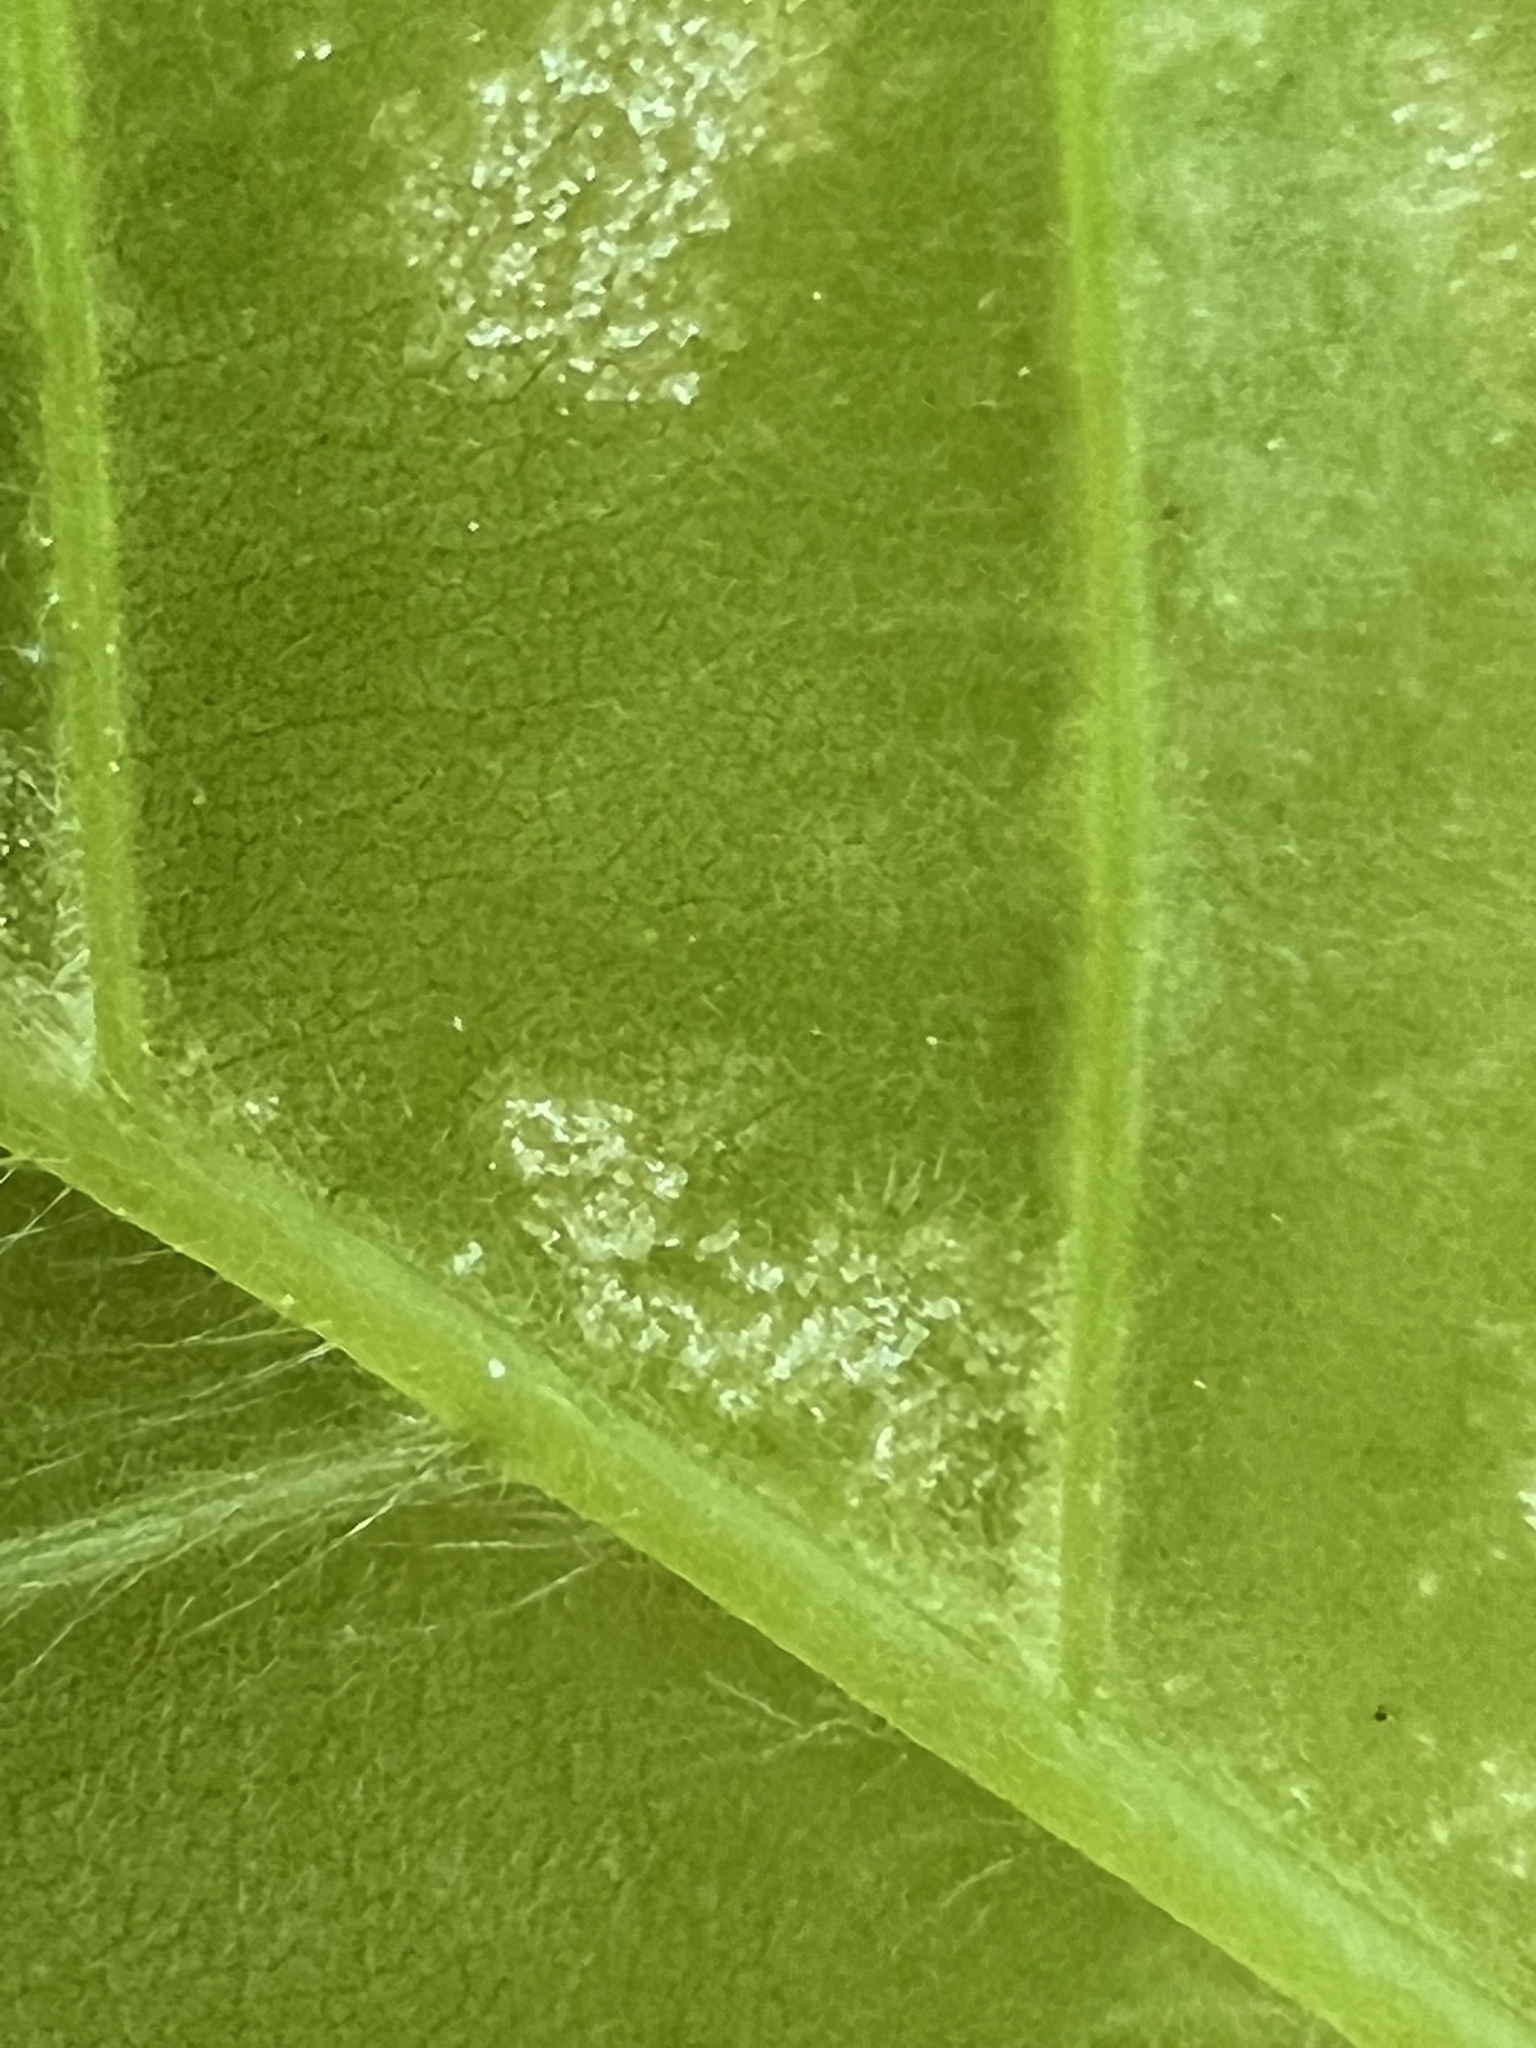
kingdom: Animalia
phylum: Arthropoda
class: Arachnida
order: Trombidiformes
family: Eriophyidae
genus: Acalitus
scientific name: Acalitus
